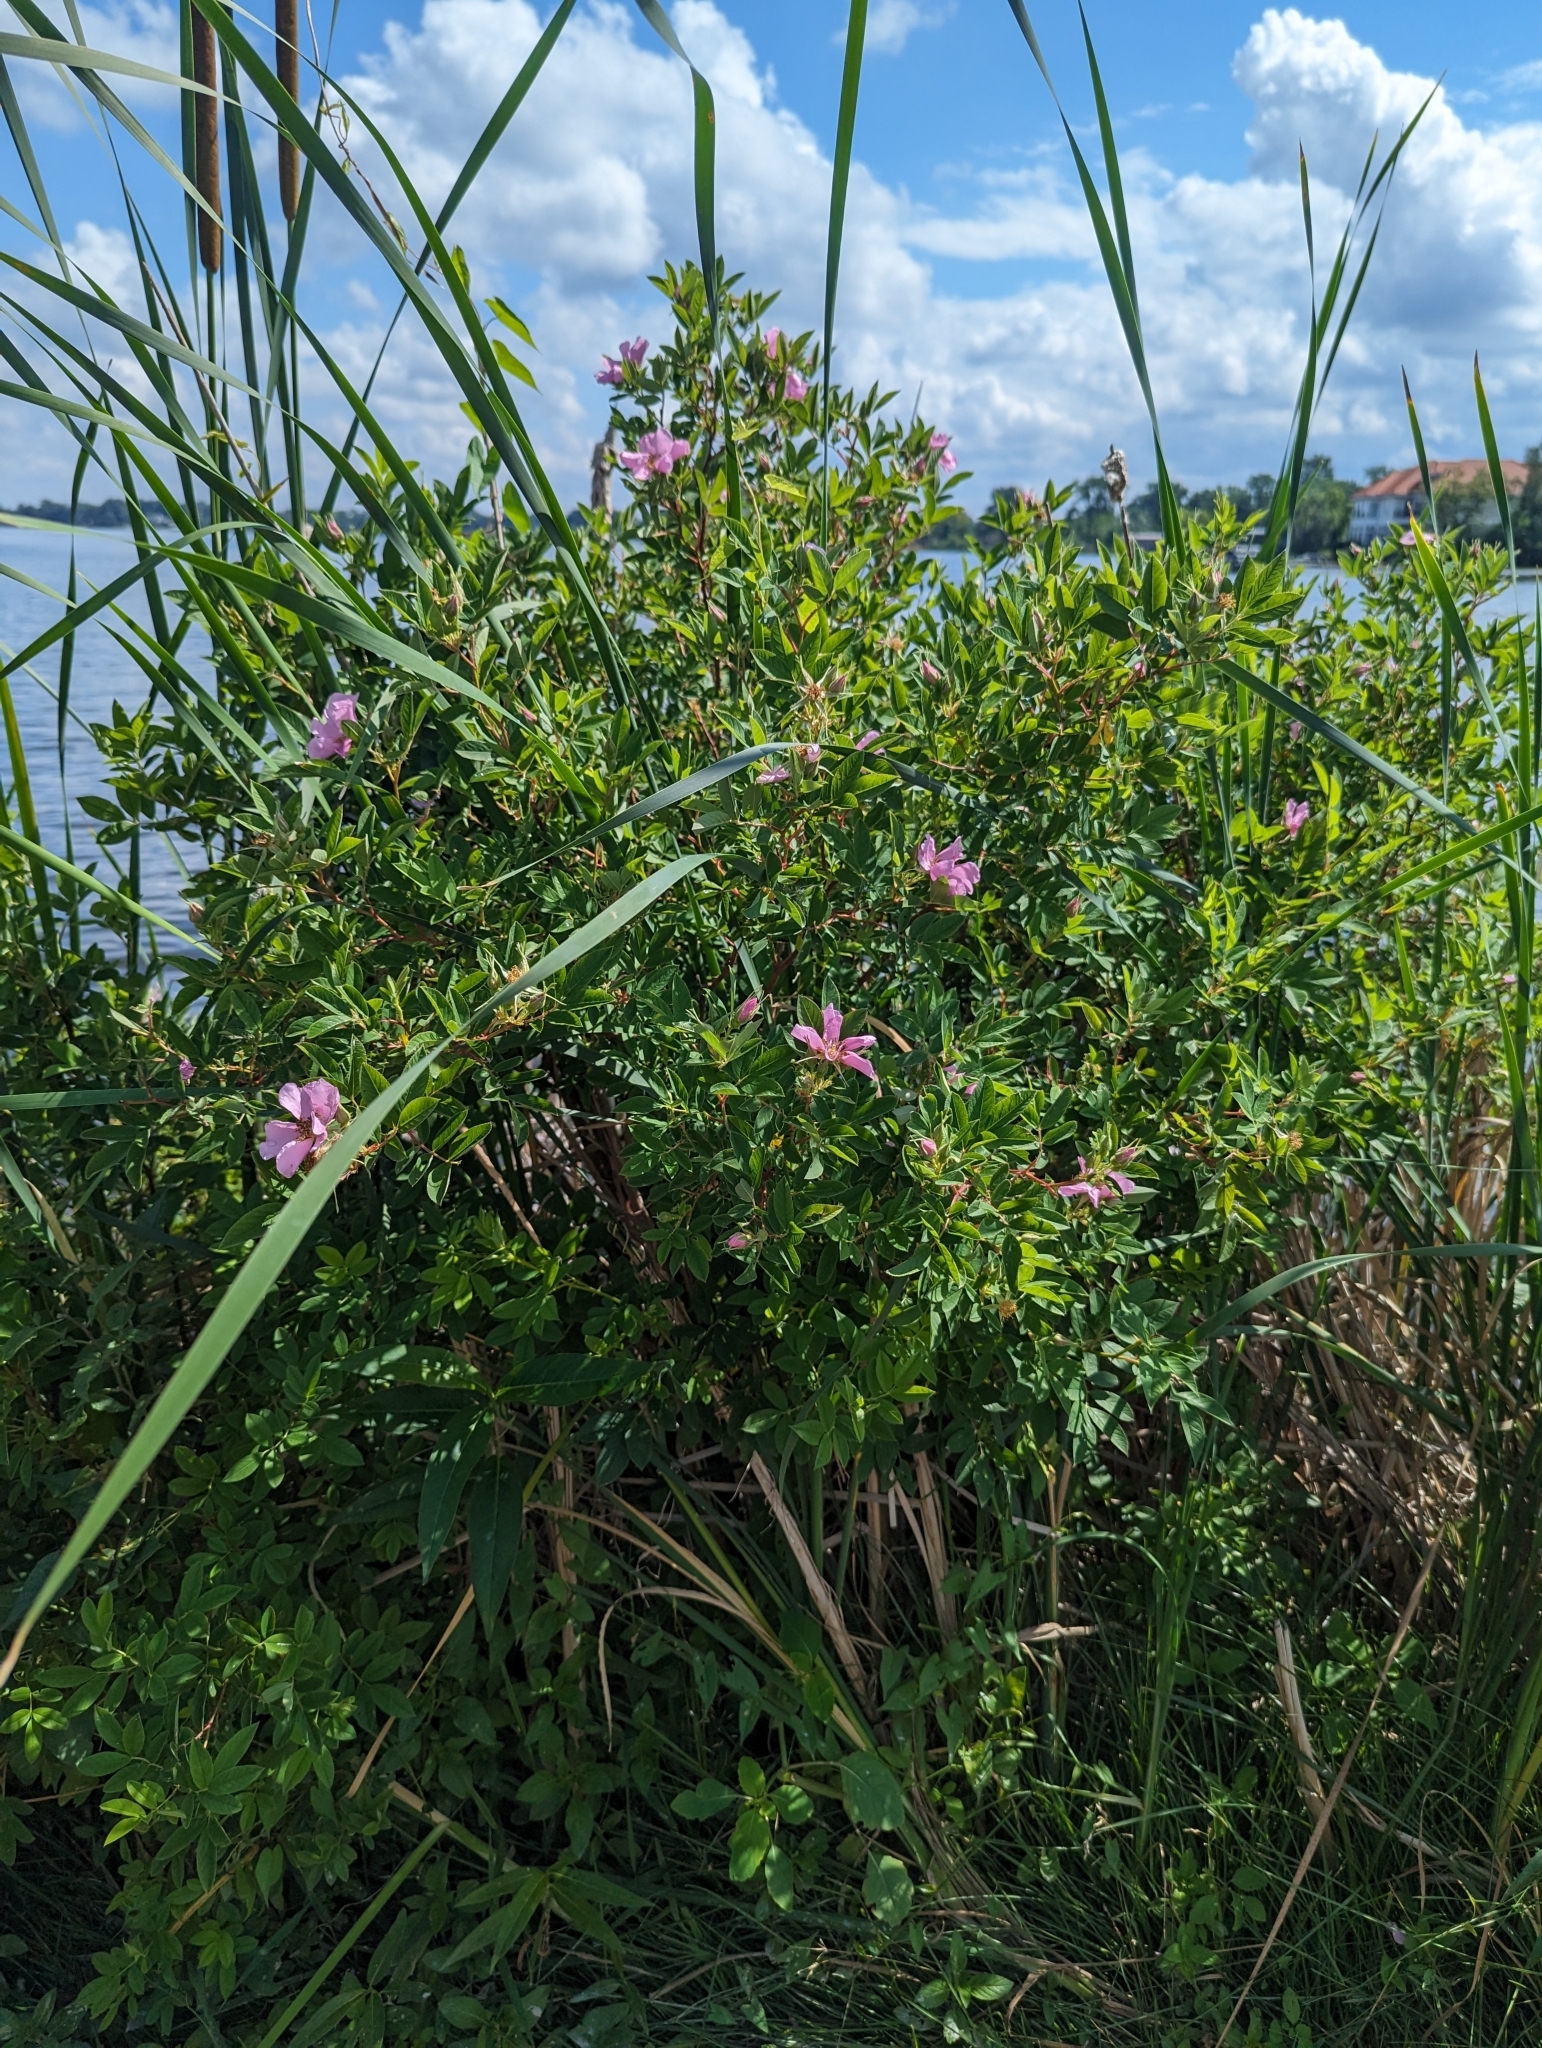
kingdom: Plantae
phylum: Tracheophyta
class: Magnoliopsida
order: Rosales
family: Rosaceae
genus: Rosa
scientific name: Rosa palustris
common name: Swamp rose
